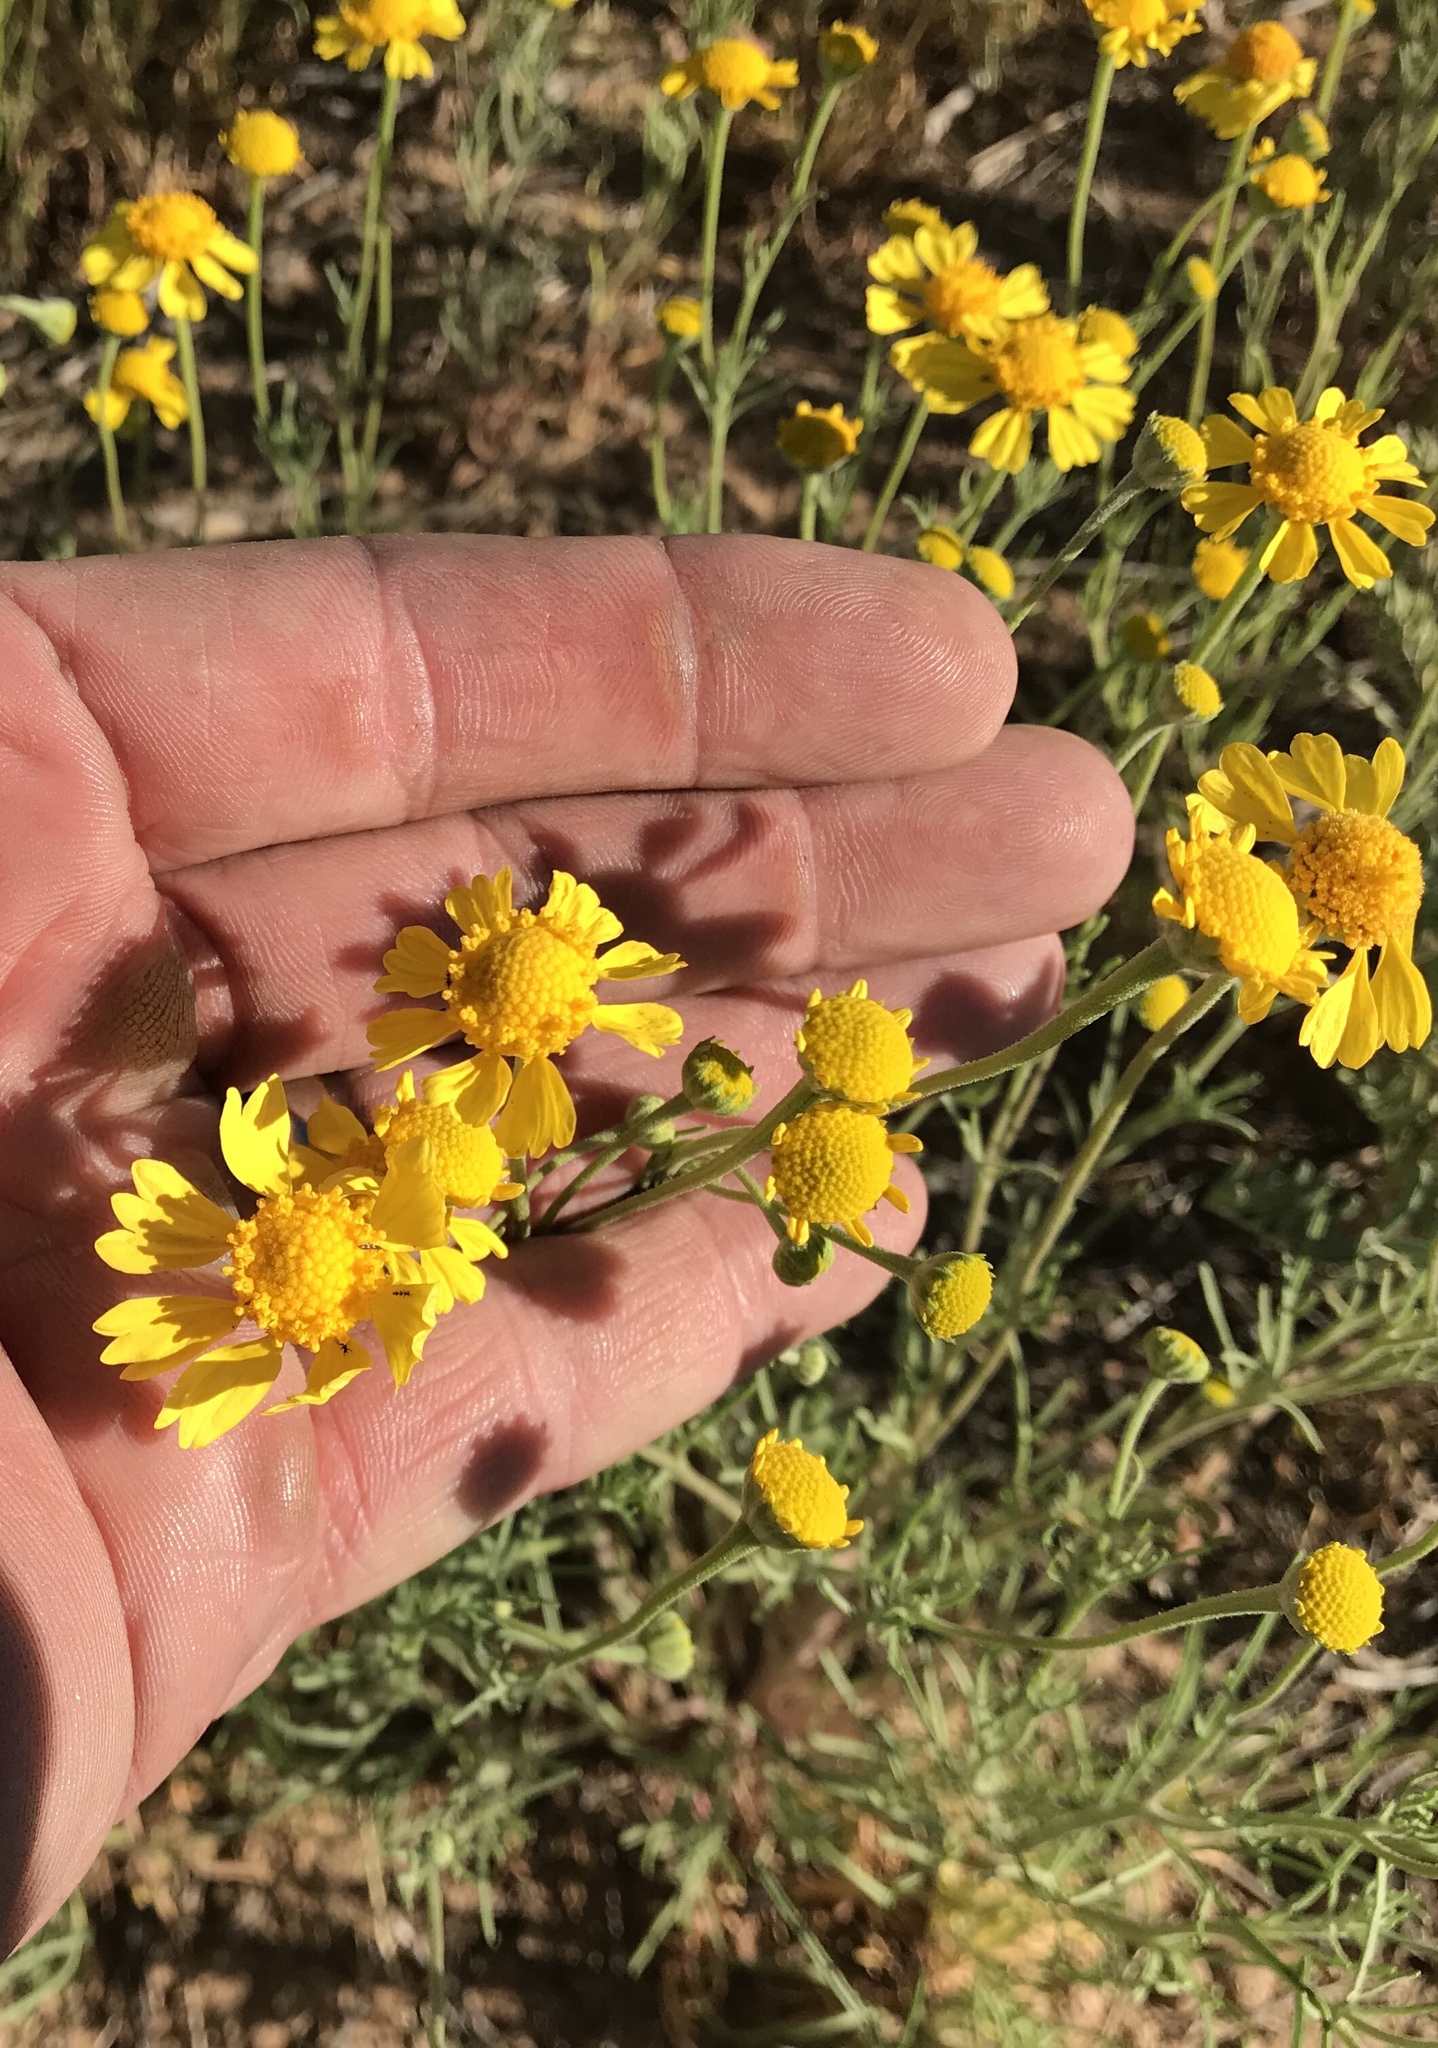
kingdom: Plantae
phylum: Tracheophyta
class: Magnoliopsida
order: Asterales
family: Asteraceae
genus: Hymenoxys
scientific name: Hymenoxys odorata
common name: Bitter rubberweed
